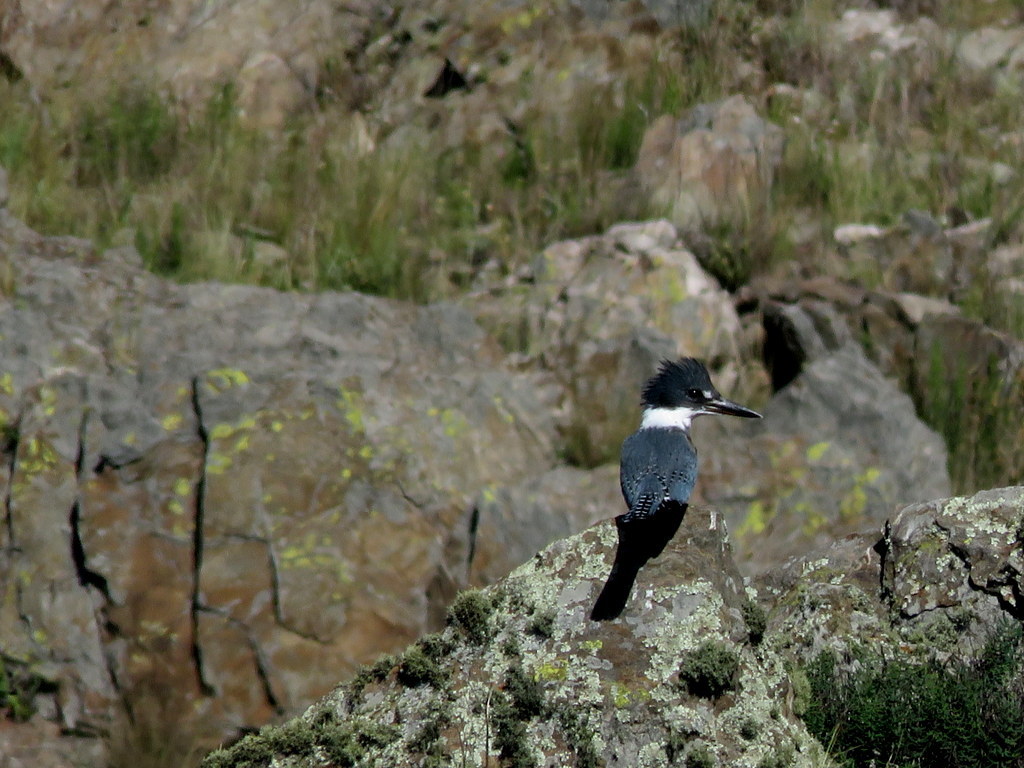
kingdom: Animalia
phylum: Chordata
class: Aves
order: Coraciiformes
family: Alcedinidae
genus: Megaceryle
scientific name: Megaceryle torquata
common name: Ringed kingfisher
